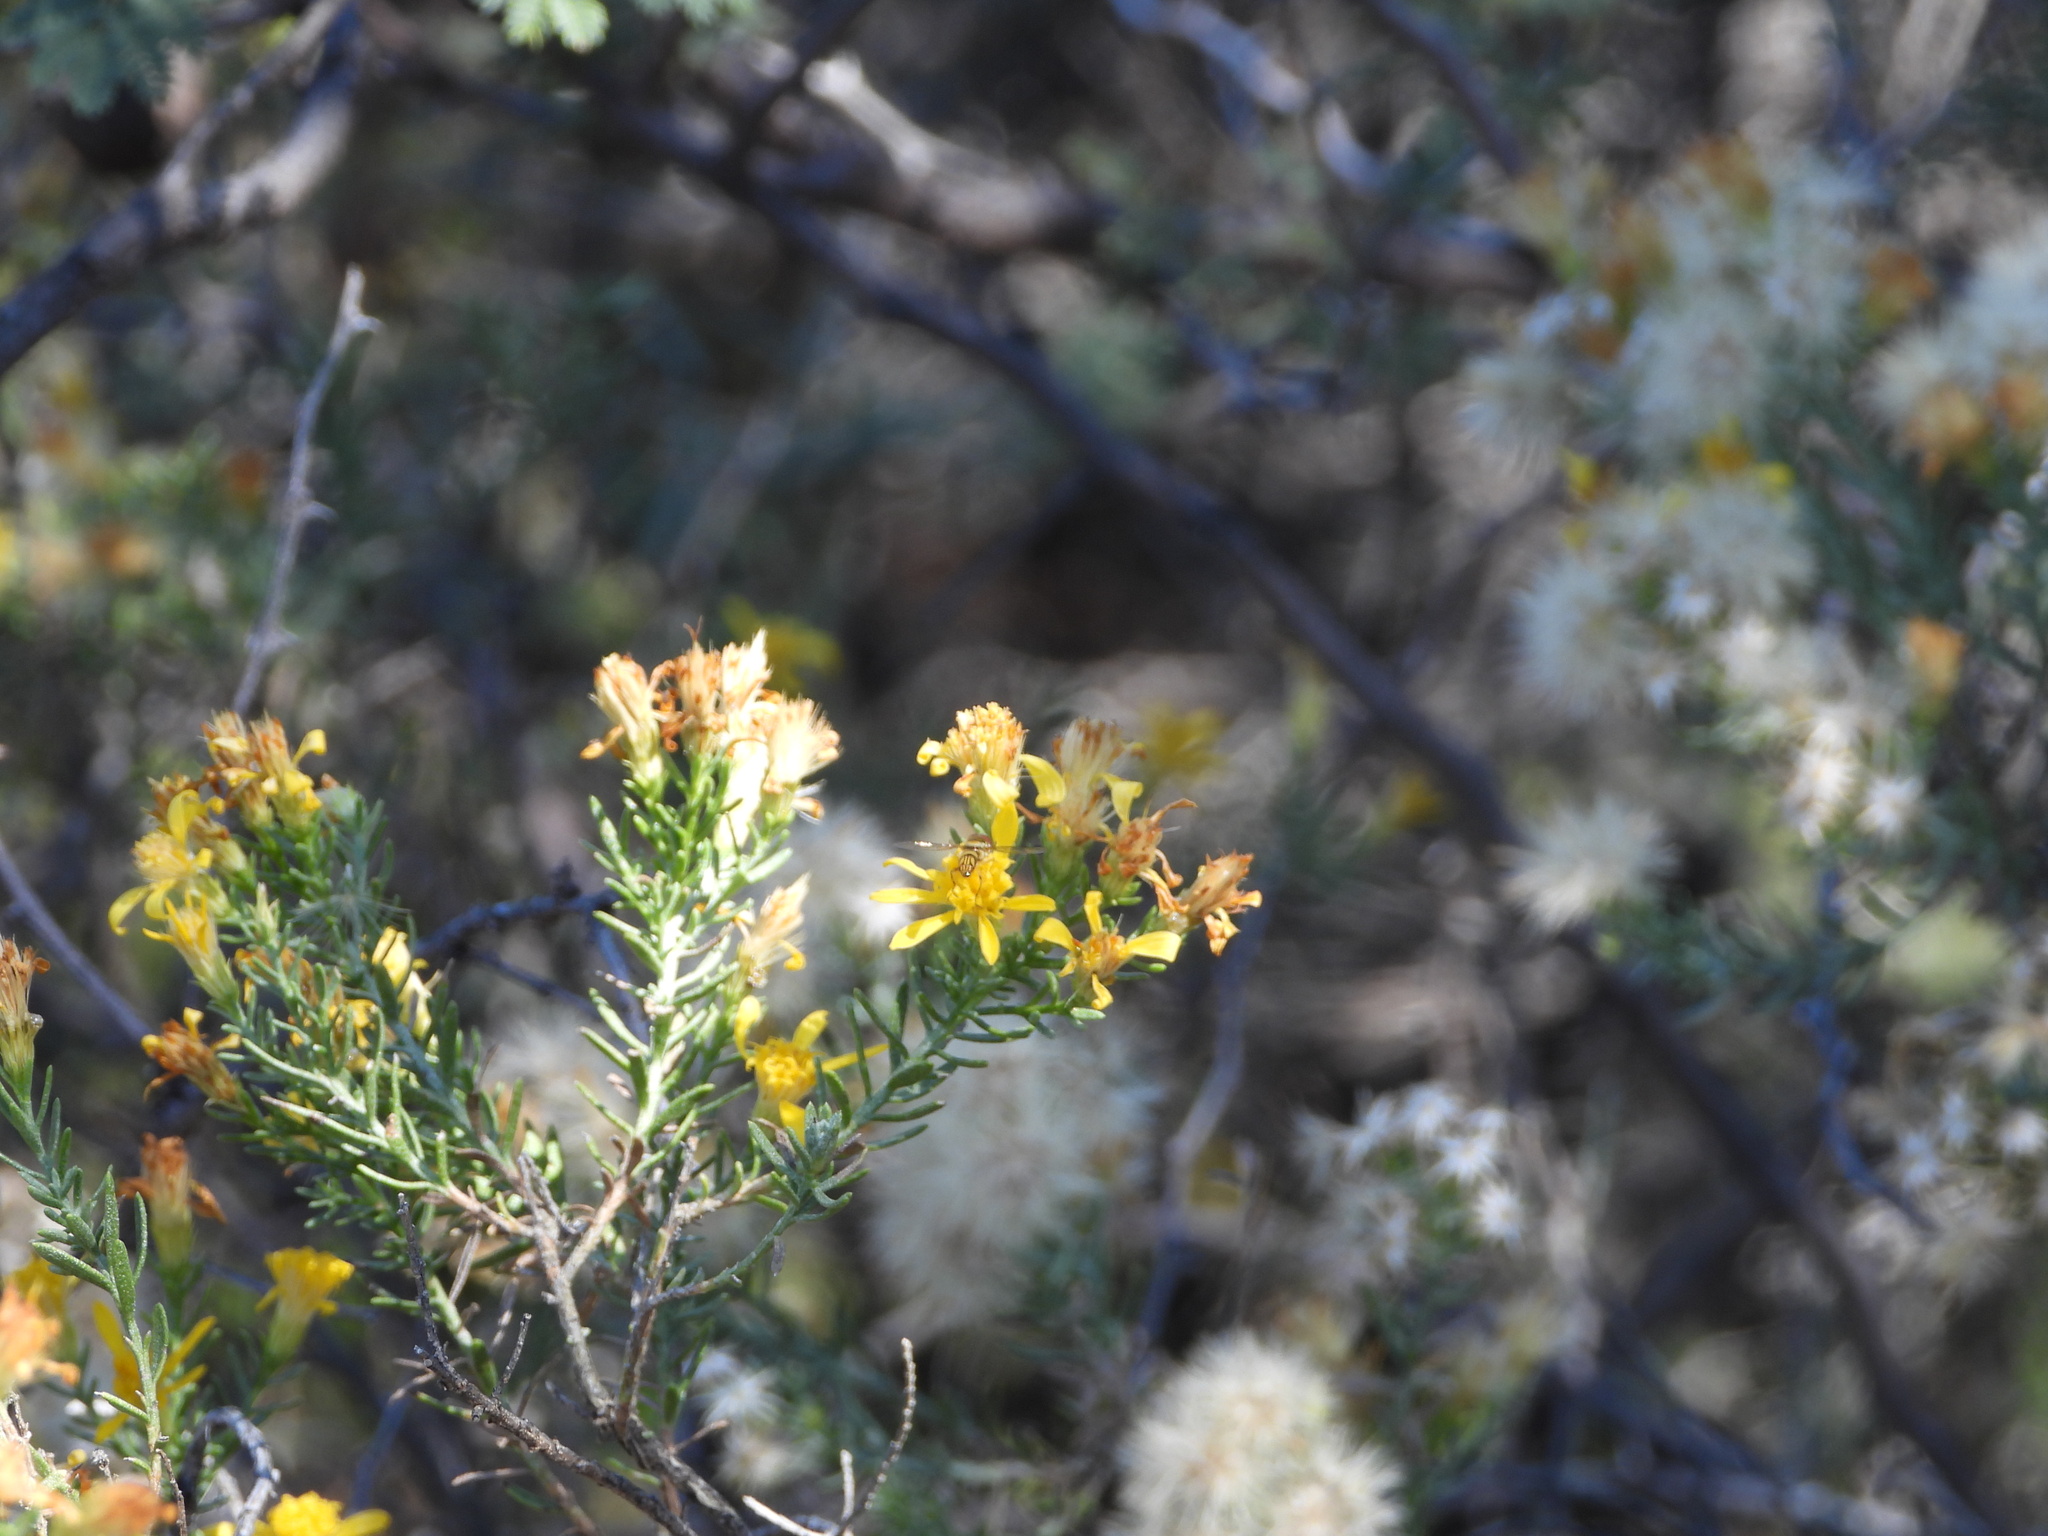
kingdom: Plantae
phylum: Tracheophyta
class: Magnoliopsida
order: Asterales
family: Asteraceae
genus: Ericameria
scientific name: Ericameria laricifolia
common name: Turpentine-bush
